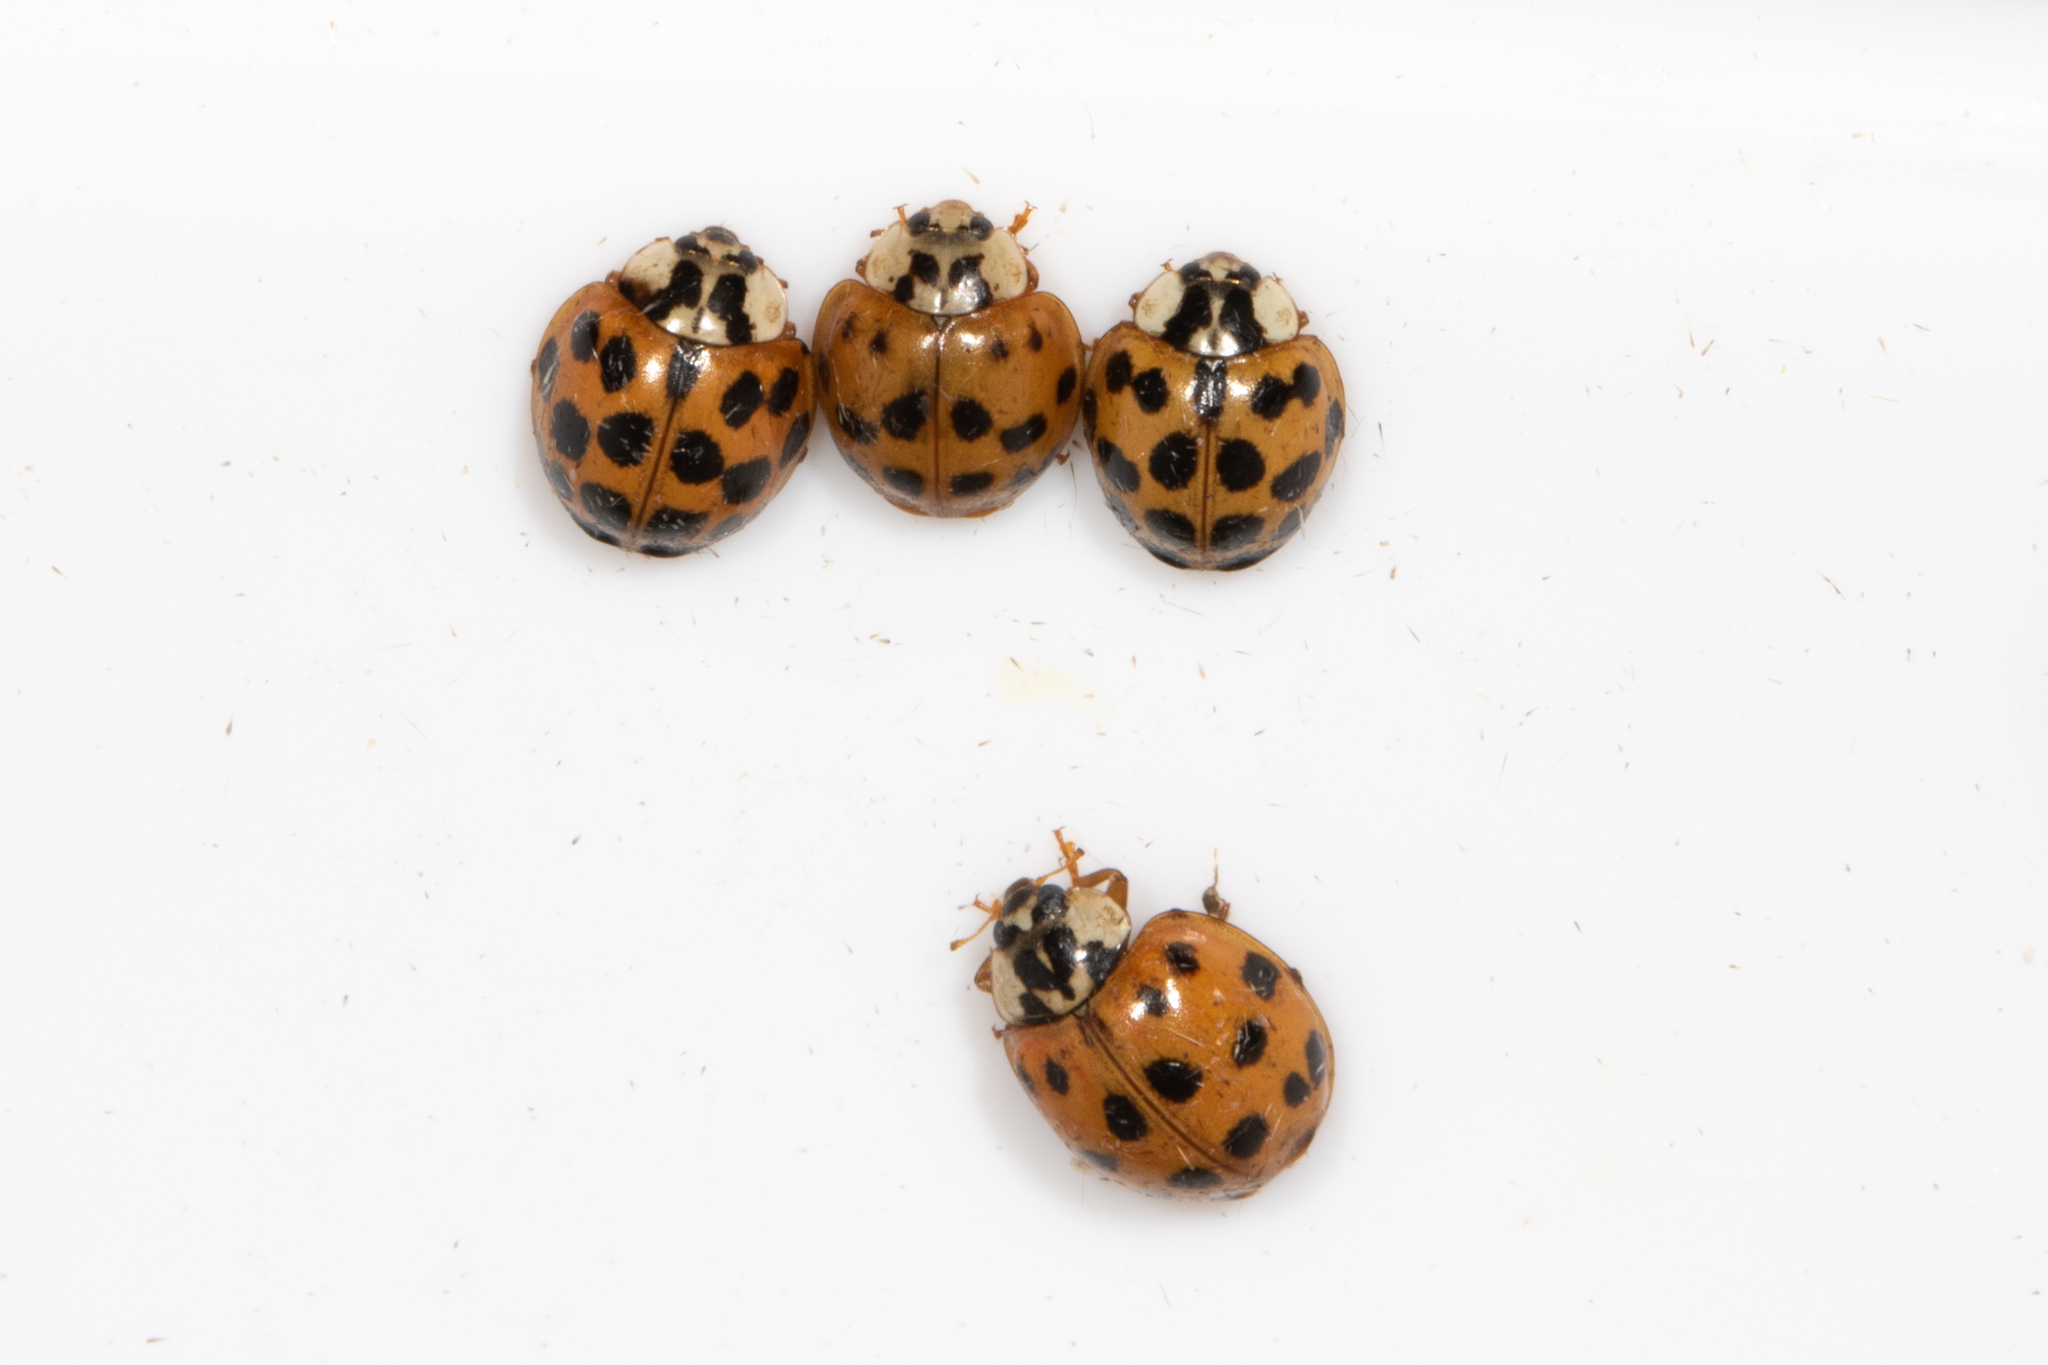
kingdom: Animalia
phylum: Arthropoda
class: Insecta
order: Coleoptera
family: Coccinellidae
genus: Harmonia
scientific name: Harmonia axyridis
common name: Harlequin ladybird
